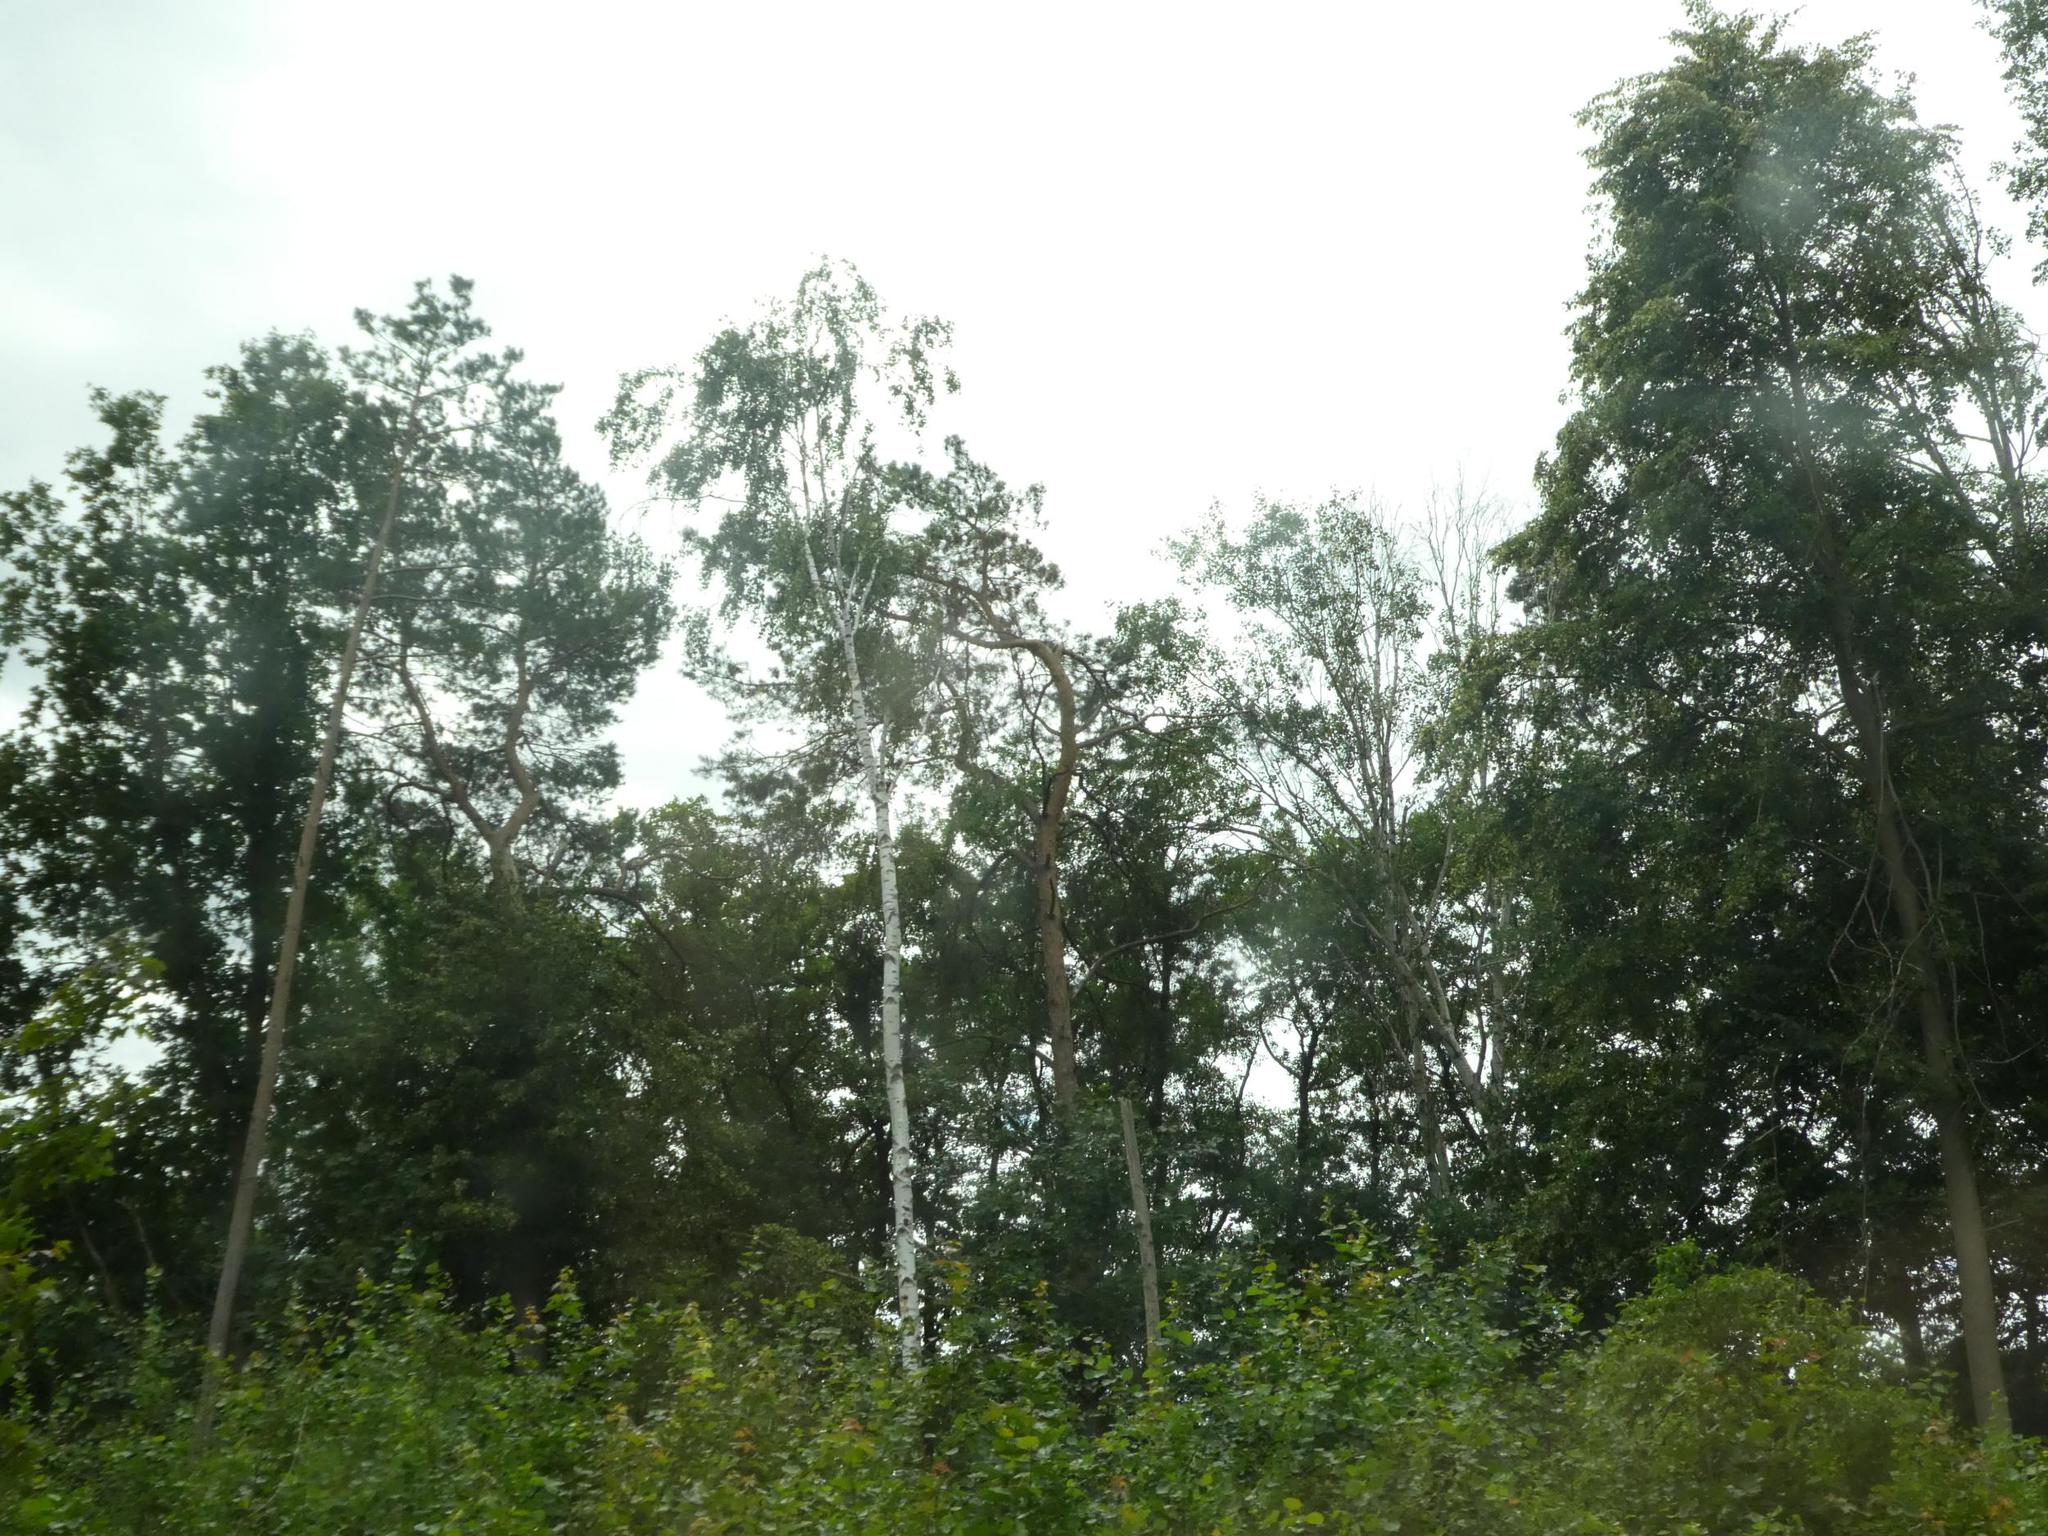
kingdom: Plantae
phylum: Tracheophyta
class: Magnoliopsida
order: Fagales
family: Betulaceae
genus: Betula
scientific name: Betula pendula
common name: Silver birch
